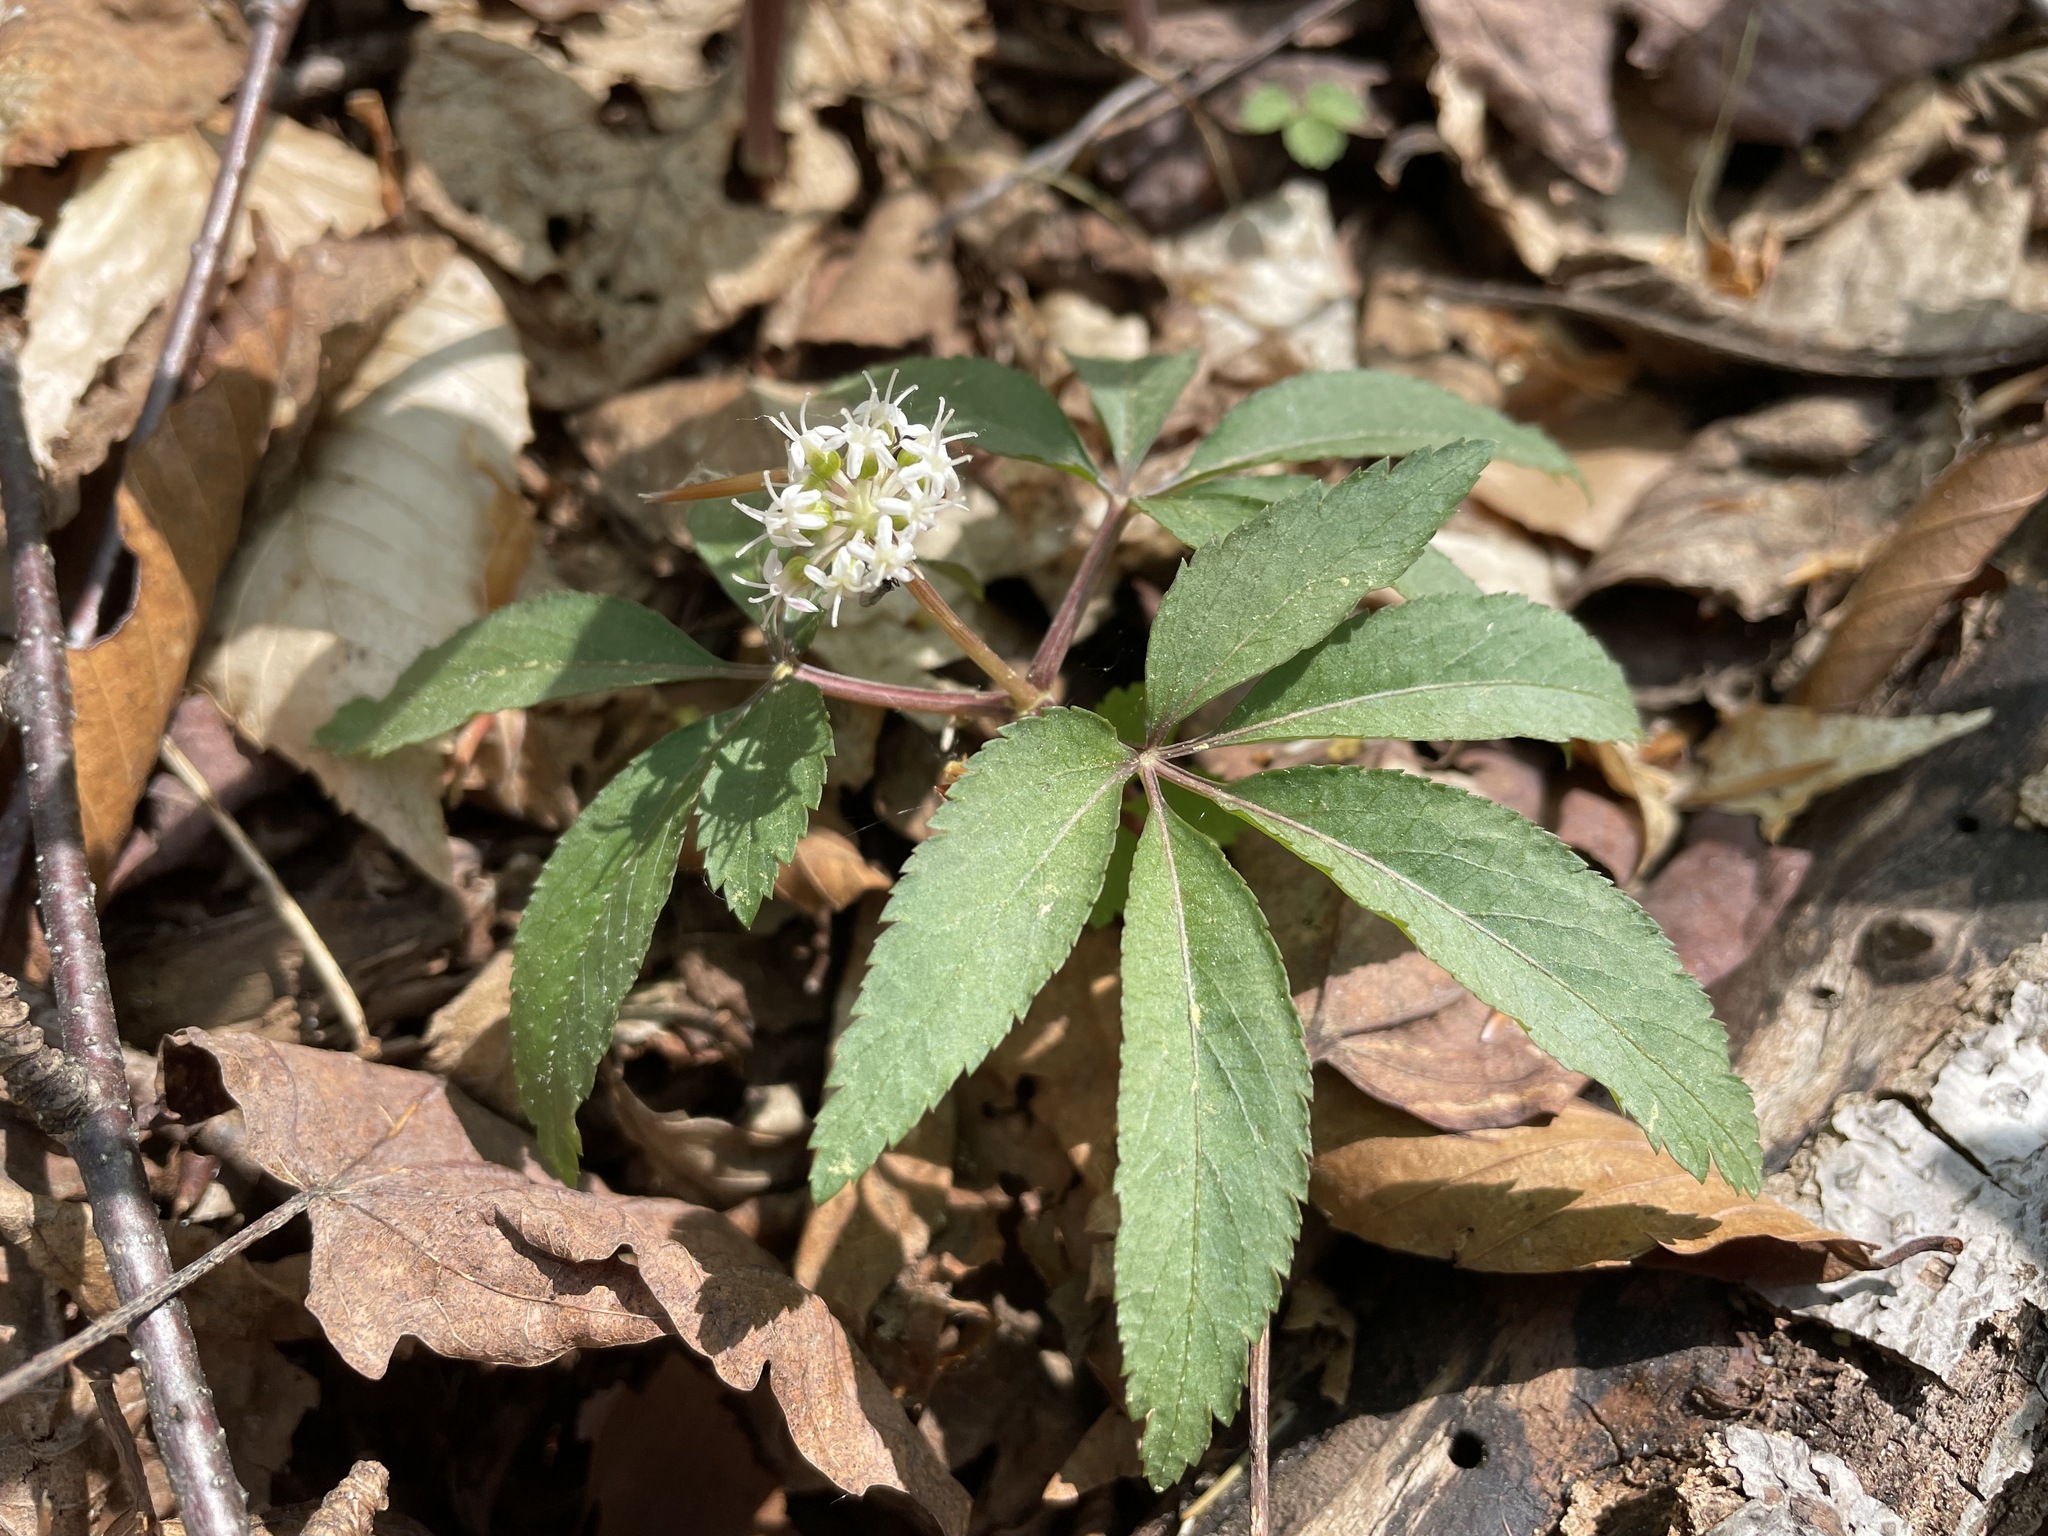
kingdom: Plantae
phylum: Tracheophyta
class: Magnoliopsida
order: Apiales
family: Araliaceae
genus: Panax
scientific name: Panax trifolius
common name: Dwarf ginseng
